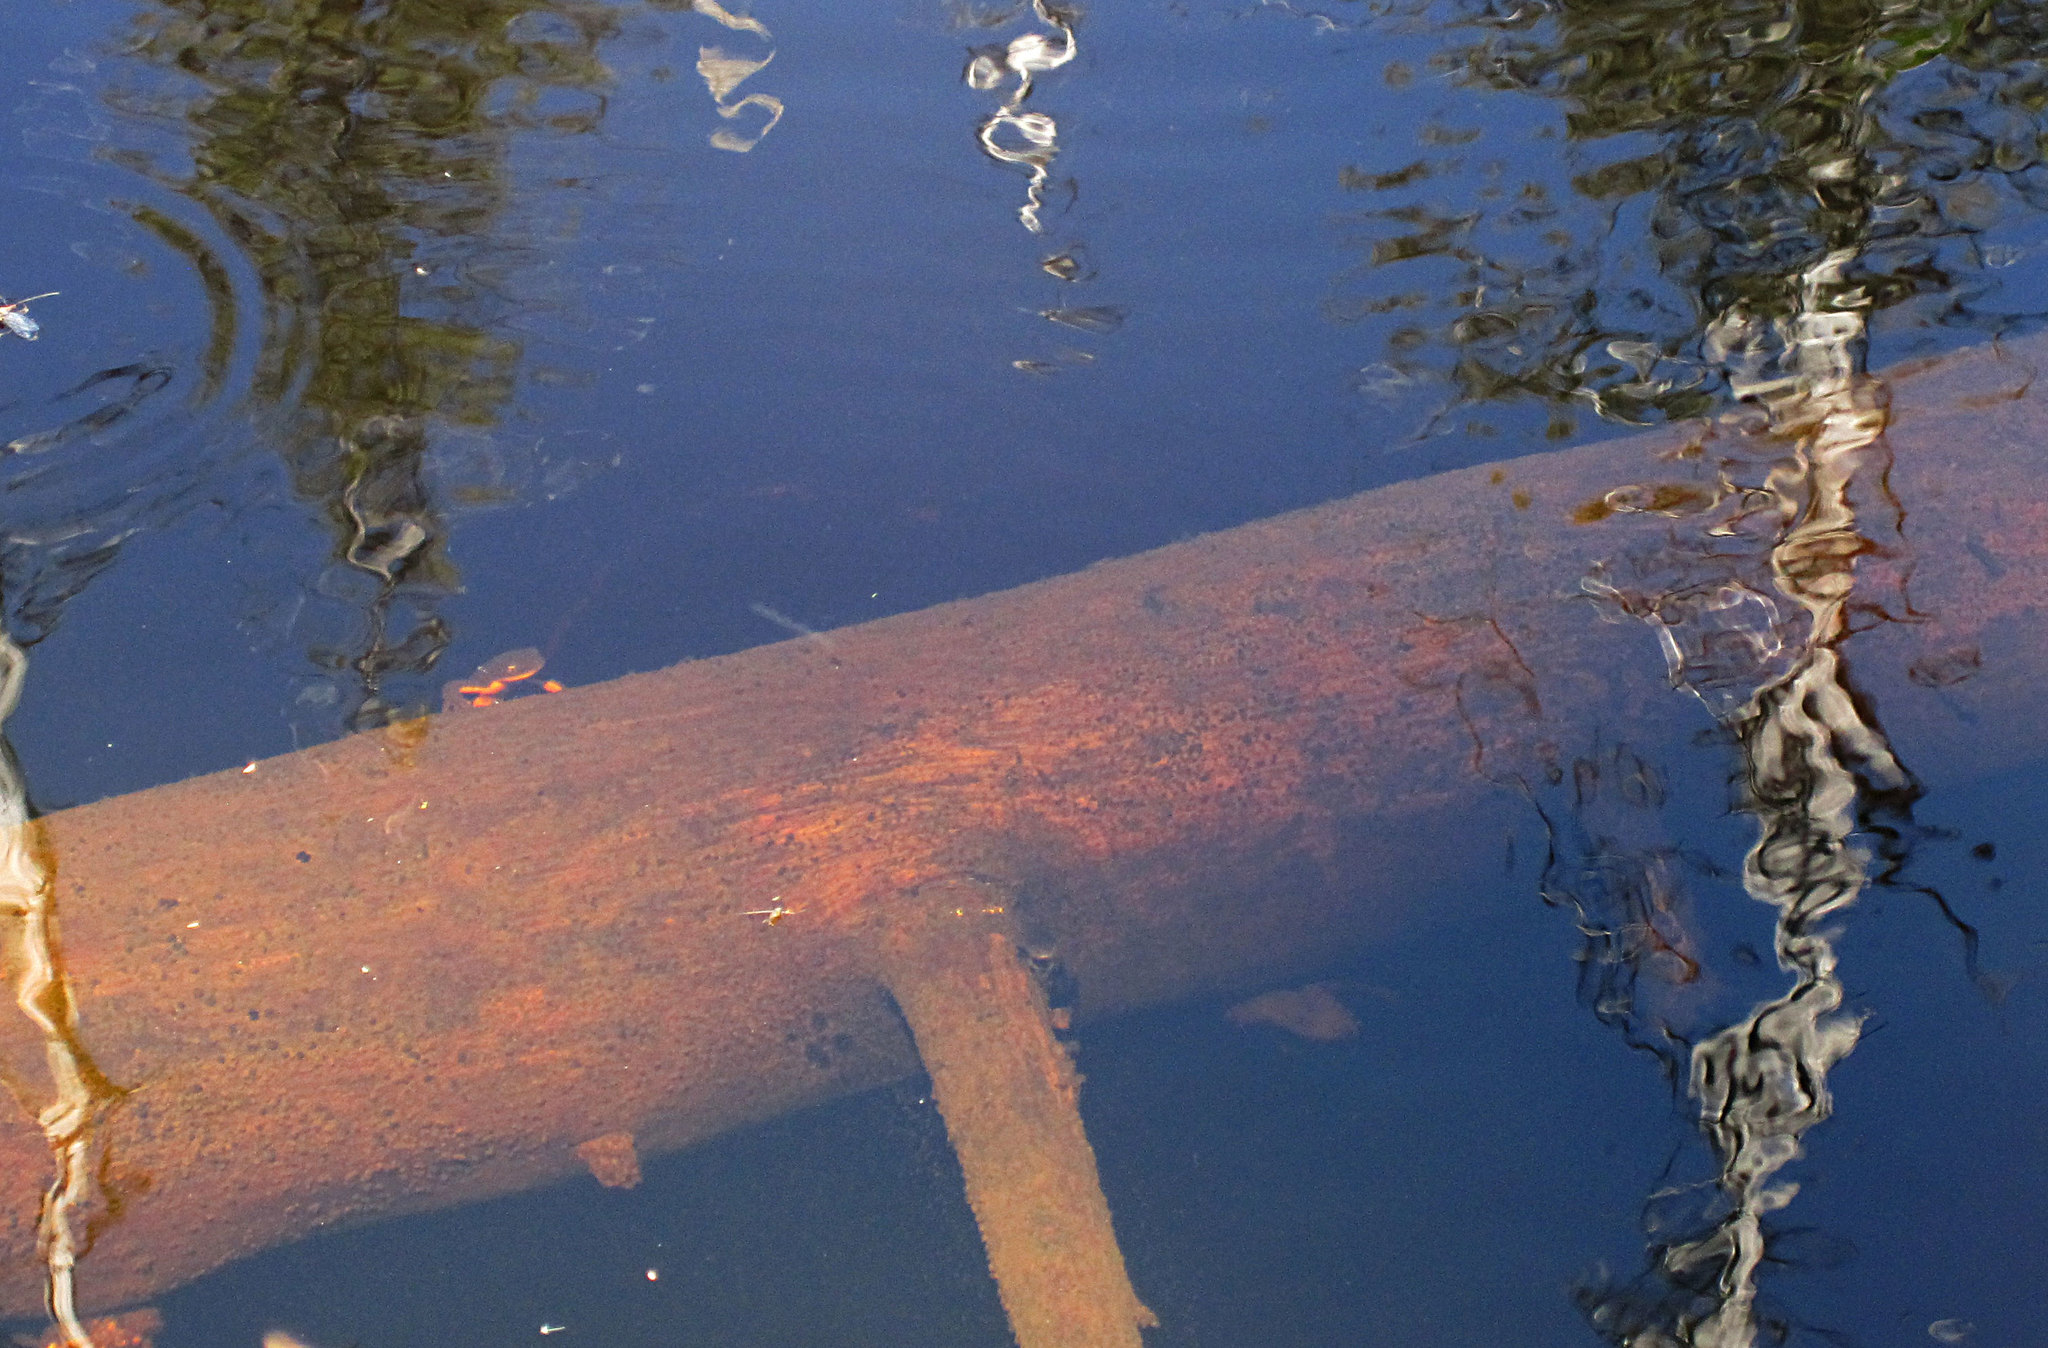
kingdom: Animalia
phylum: Chordata
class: Amphibia
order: Caudata
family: Salamandridae
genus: Taricha
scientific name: Taricha granulosa
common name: Roughskin newt
